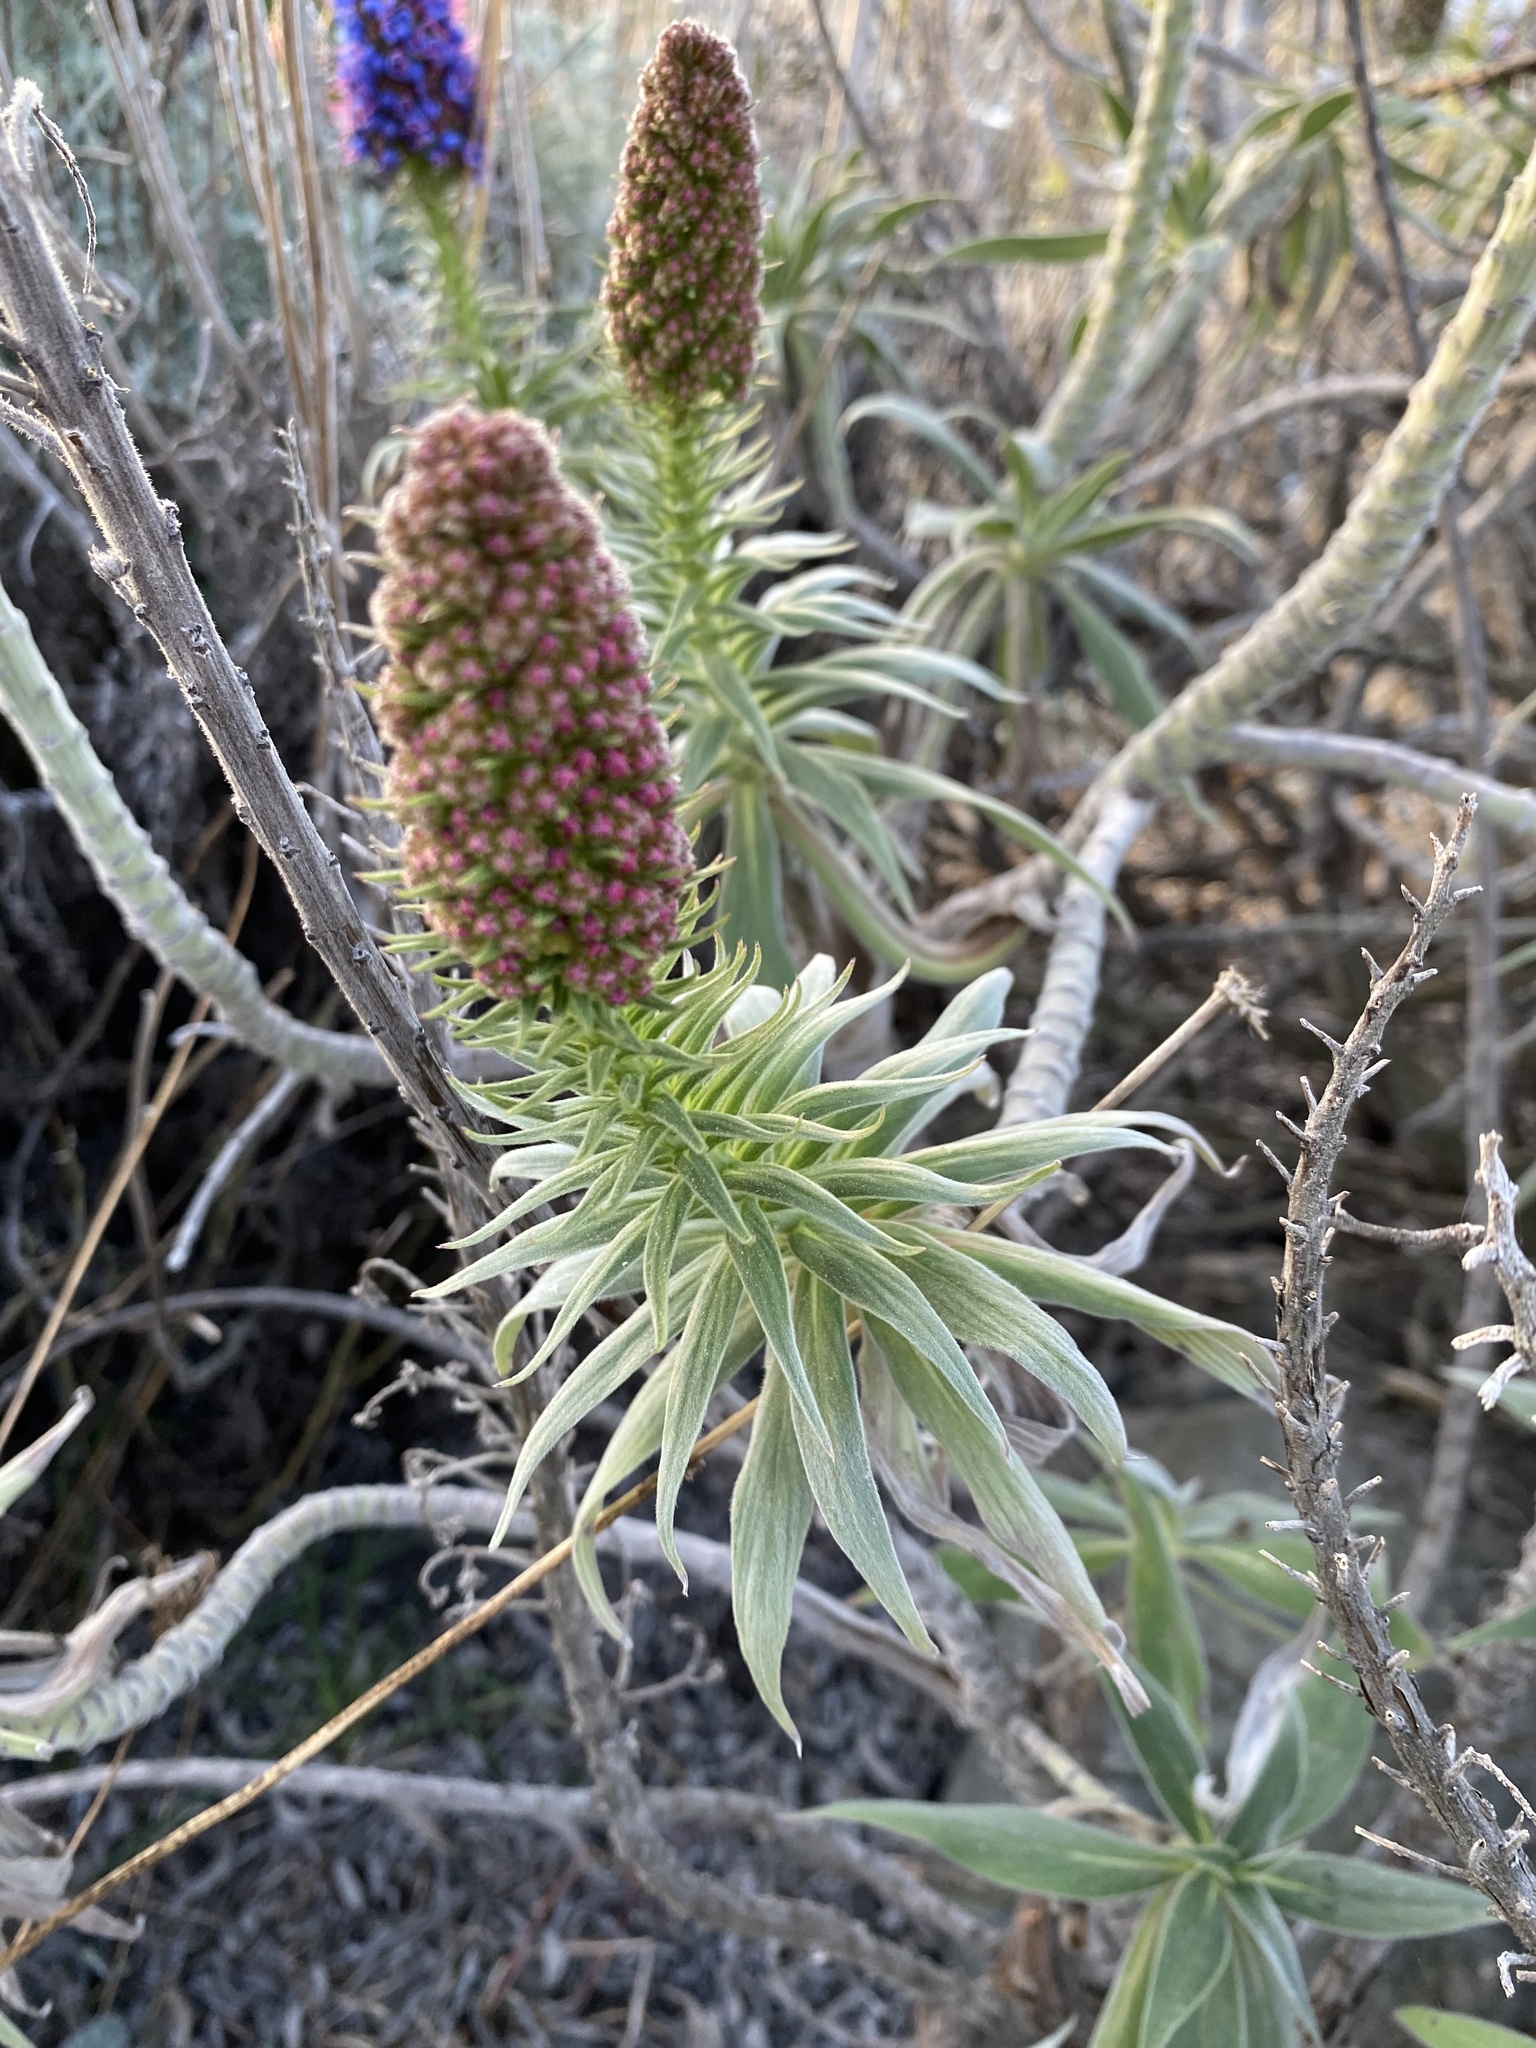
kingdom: Plantae
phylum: Tracheophyta
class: Magnoliopsida
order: Boraginales
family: Boraginaceae
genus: Echium
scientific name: Echium candicans
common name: Pride of madeira
